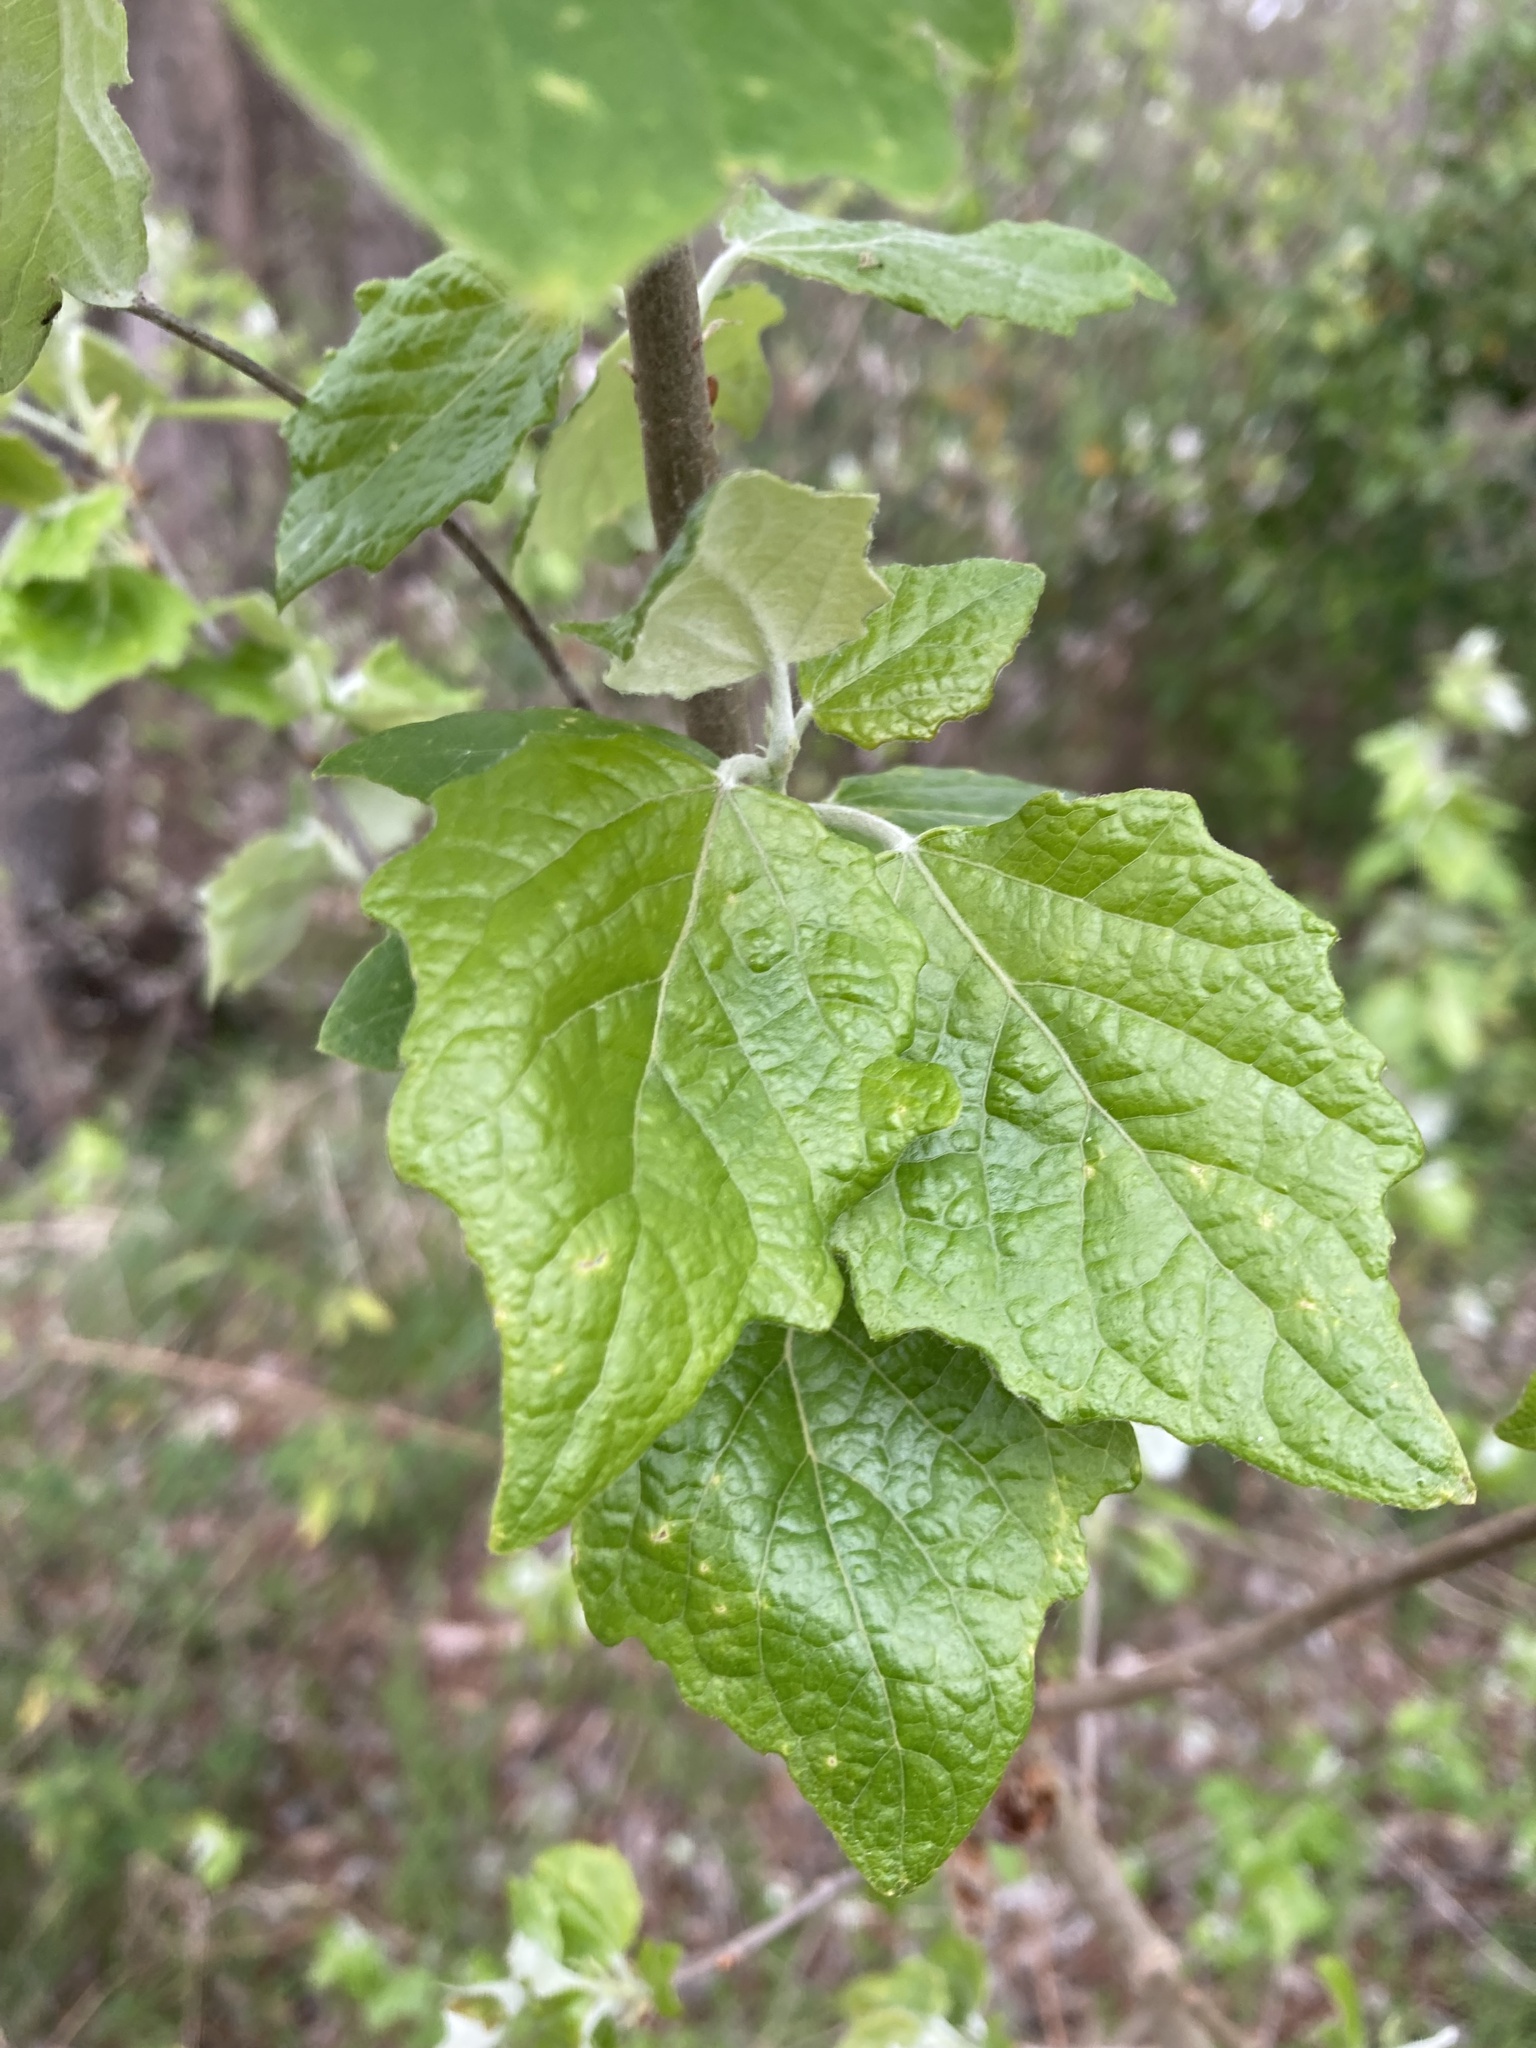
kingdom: Plantae
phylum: Tracheophyta
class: Magnoliopsida
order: Malpighiales
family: Salicaceae
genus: Populus
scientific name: Populus alba
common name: White poplar
